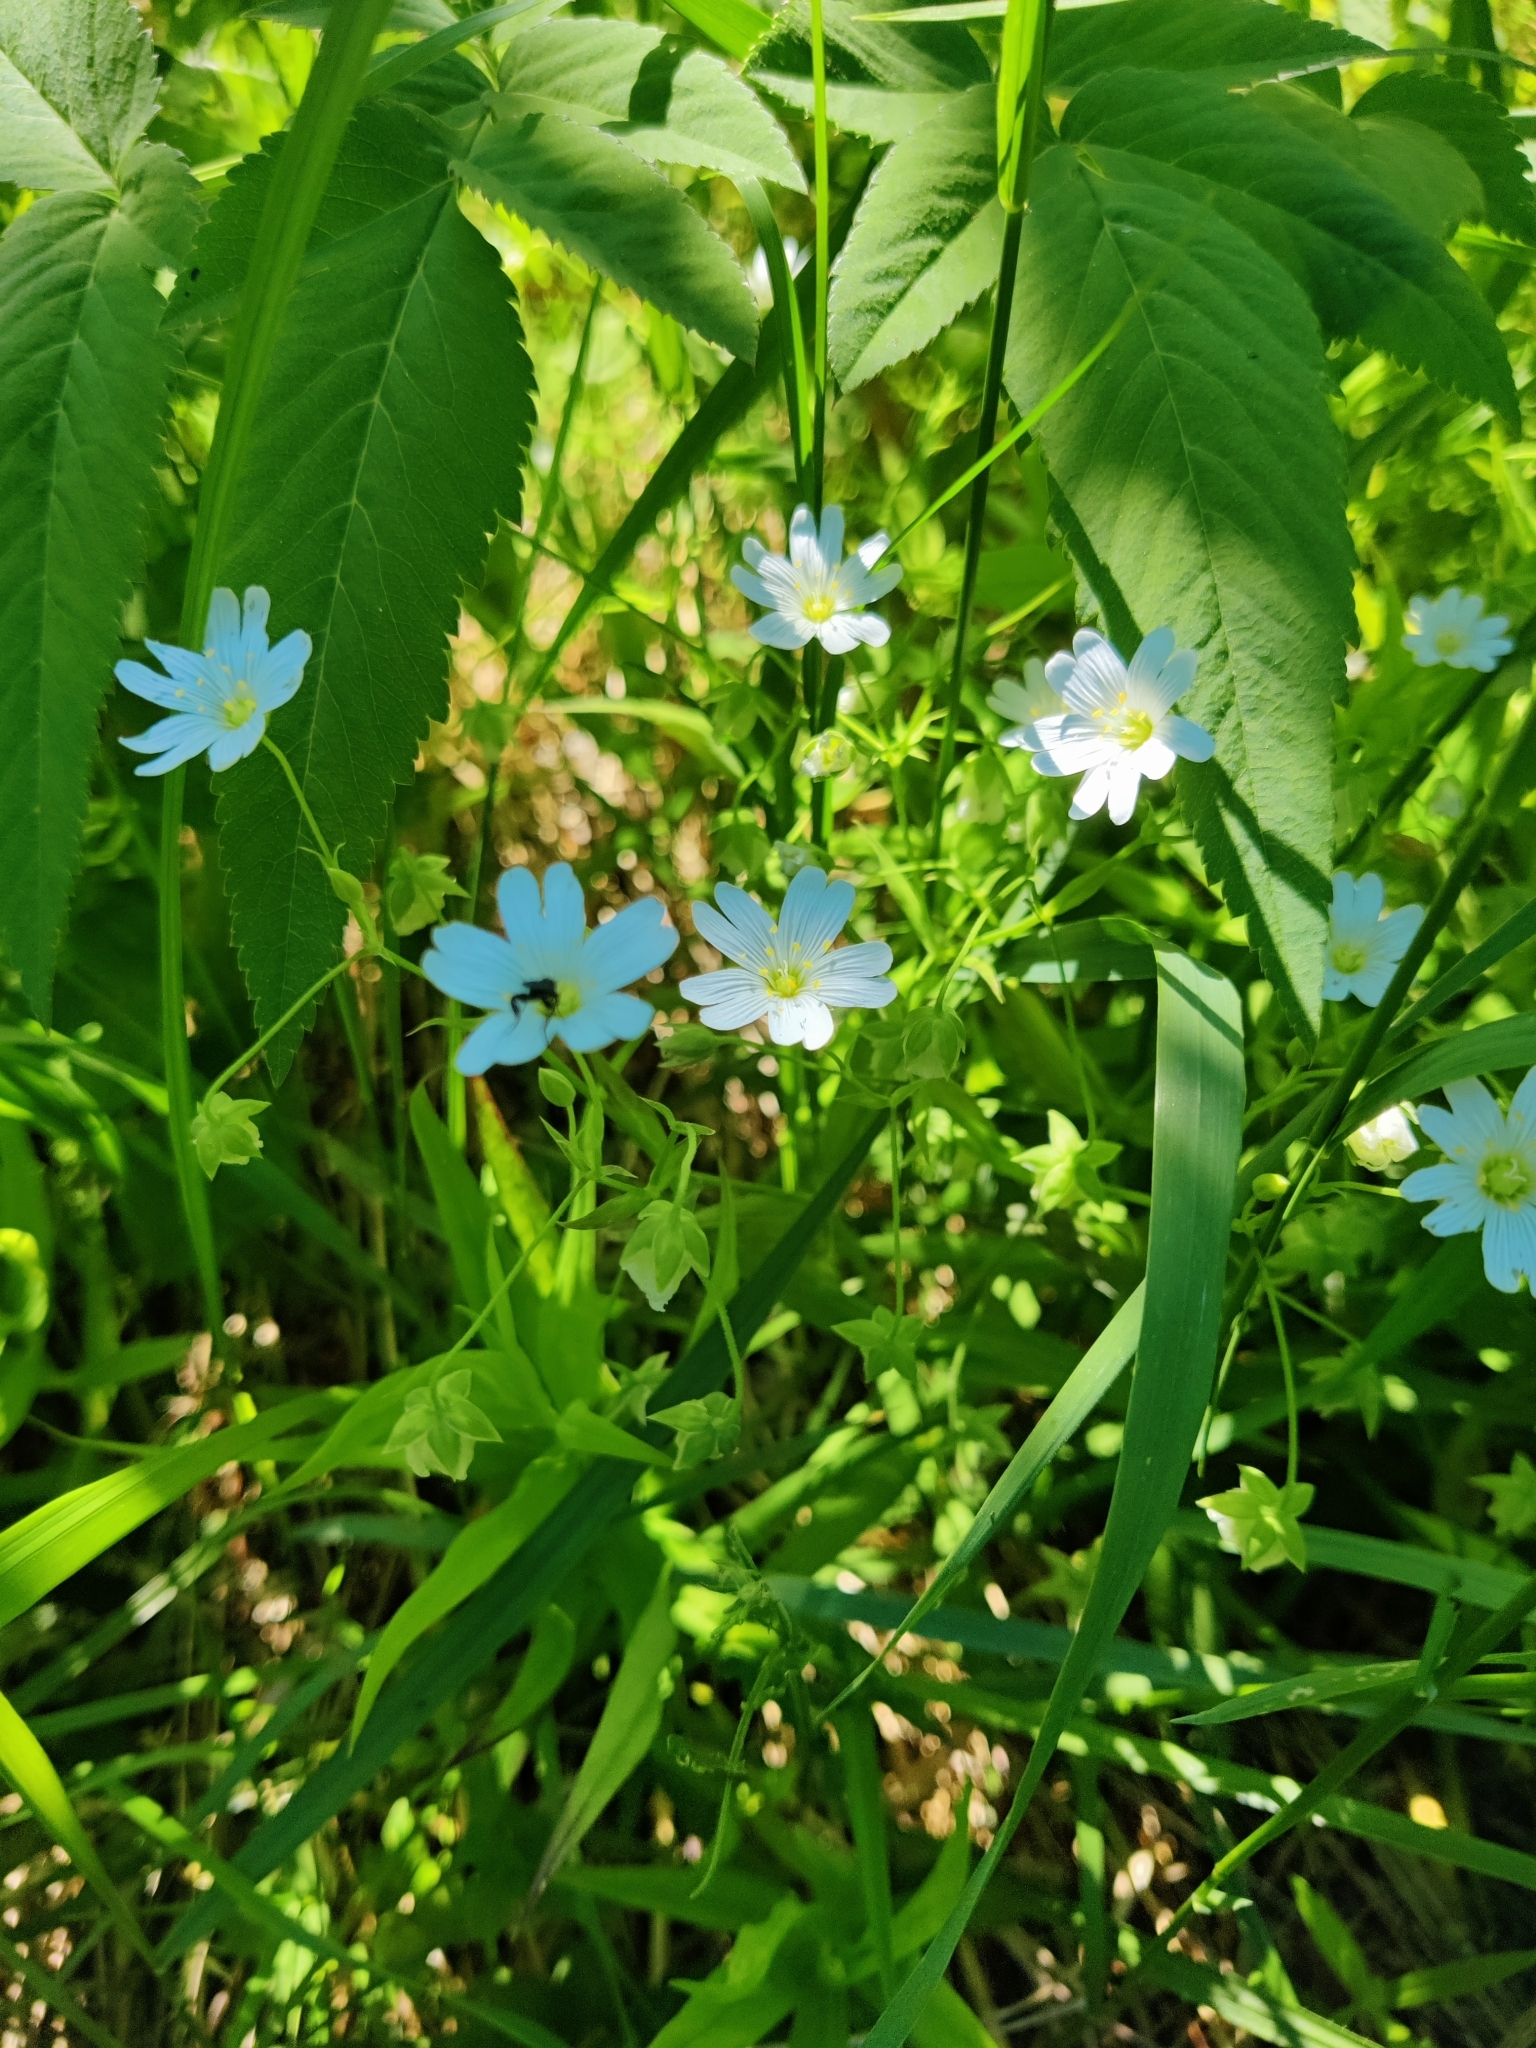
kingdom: Plantae
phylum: Tracheophyta
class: Magnoliopsida
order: Caryophyllales
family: Caryophyllaceae
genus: Rabelera
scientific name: Rabelera holostea
